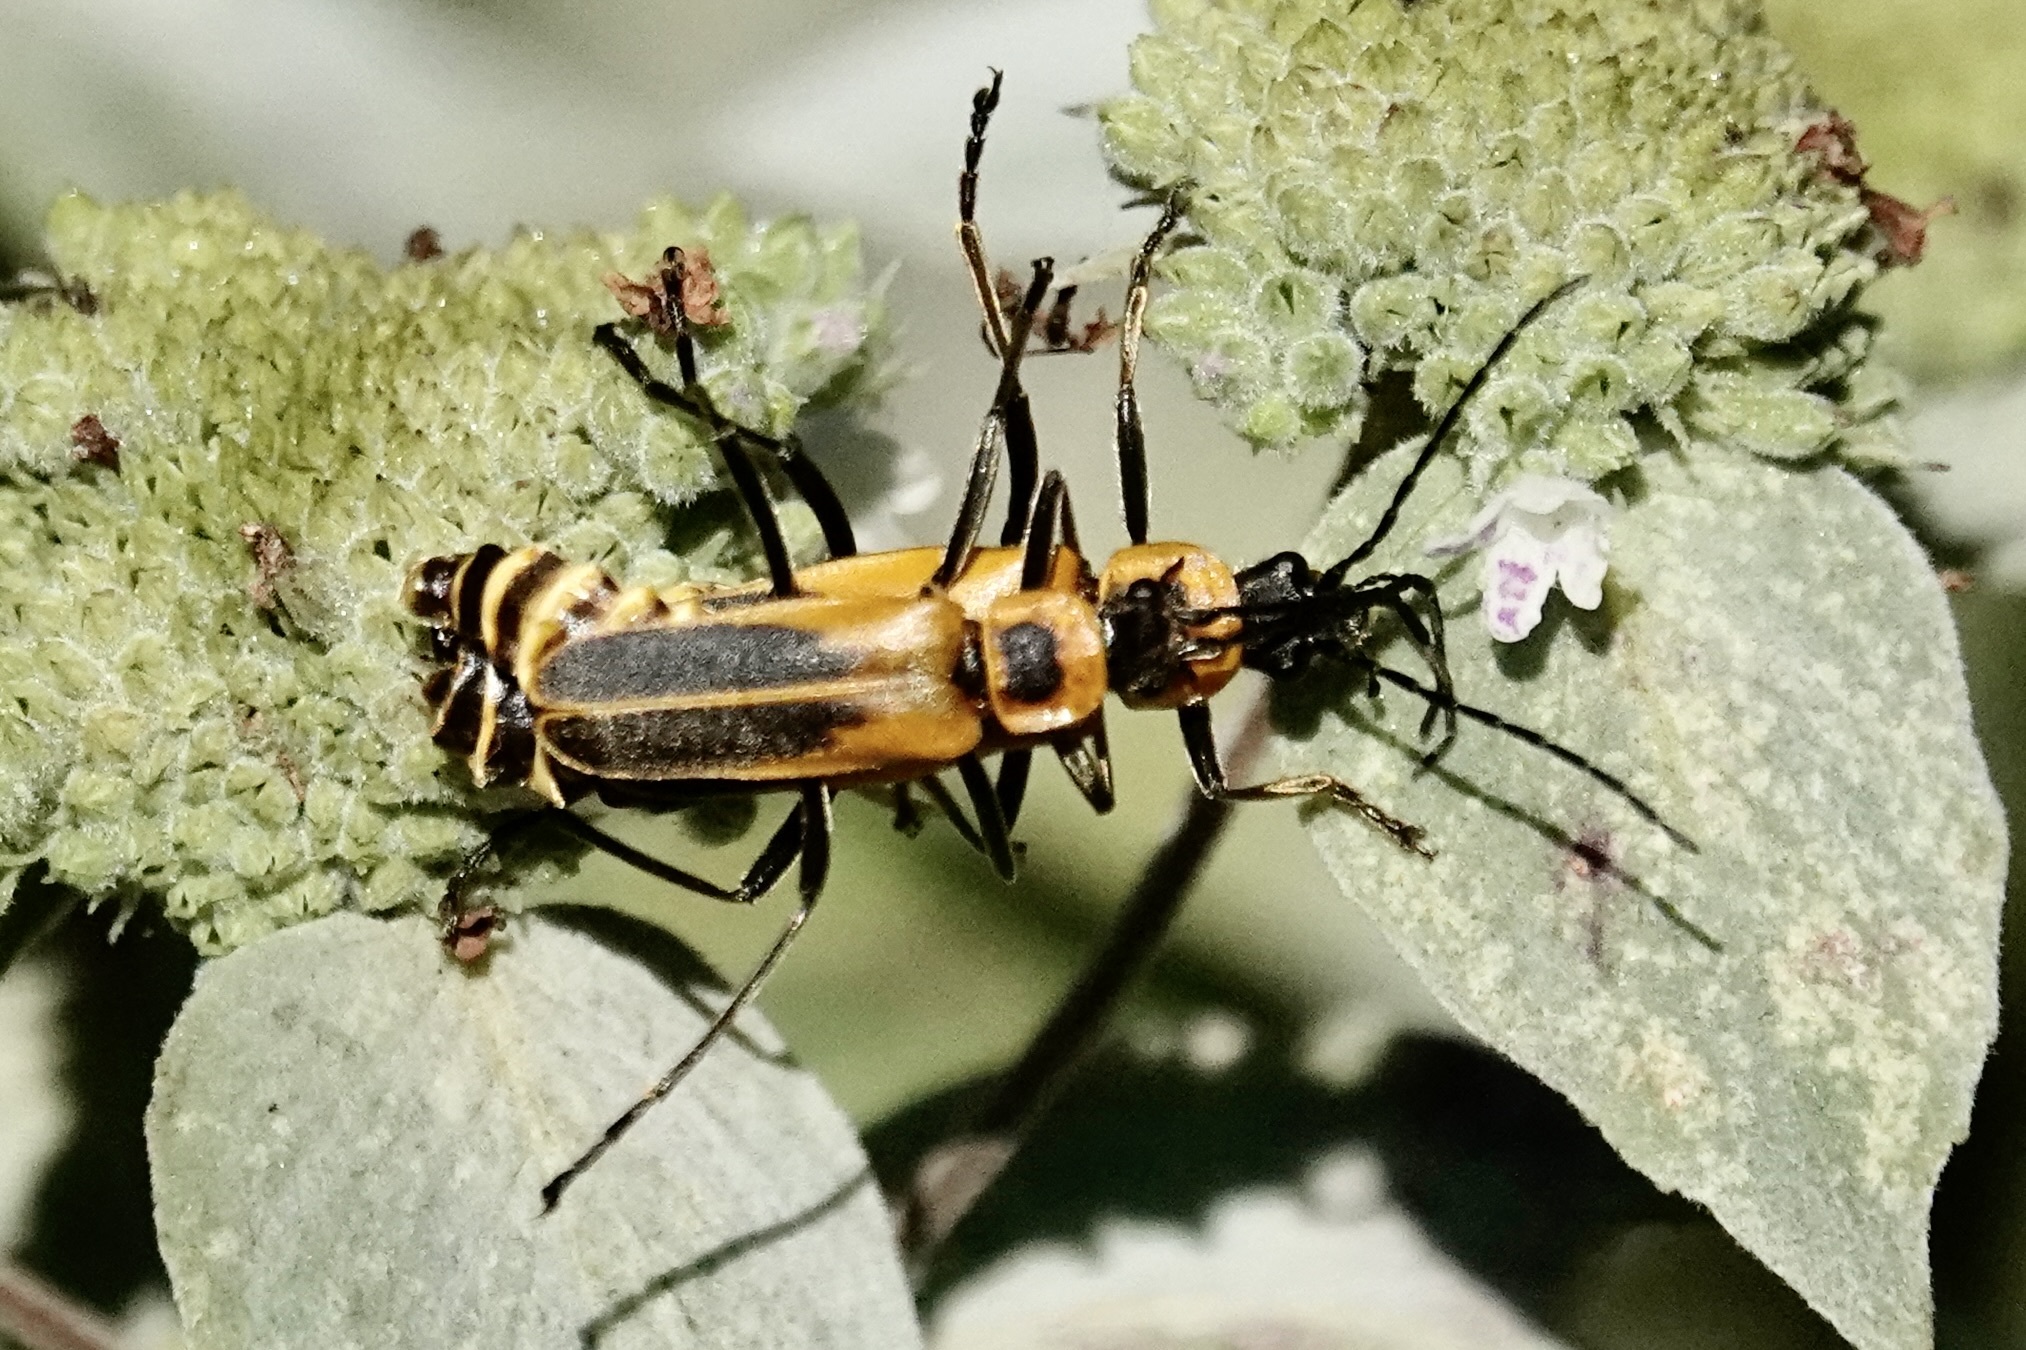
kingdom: Animalia
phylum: Arthropoda
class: Insecta
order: Coleoptera
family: Cantharidae
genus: Chauliognathus
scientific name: Chauliognathus pensylvanicus
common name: Goldenrod soldier beetle
